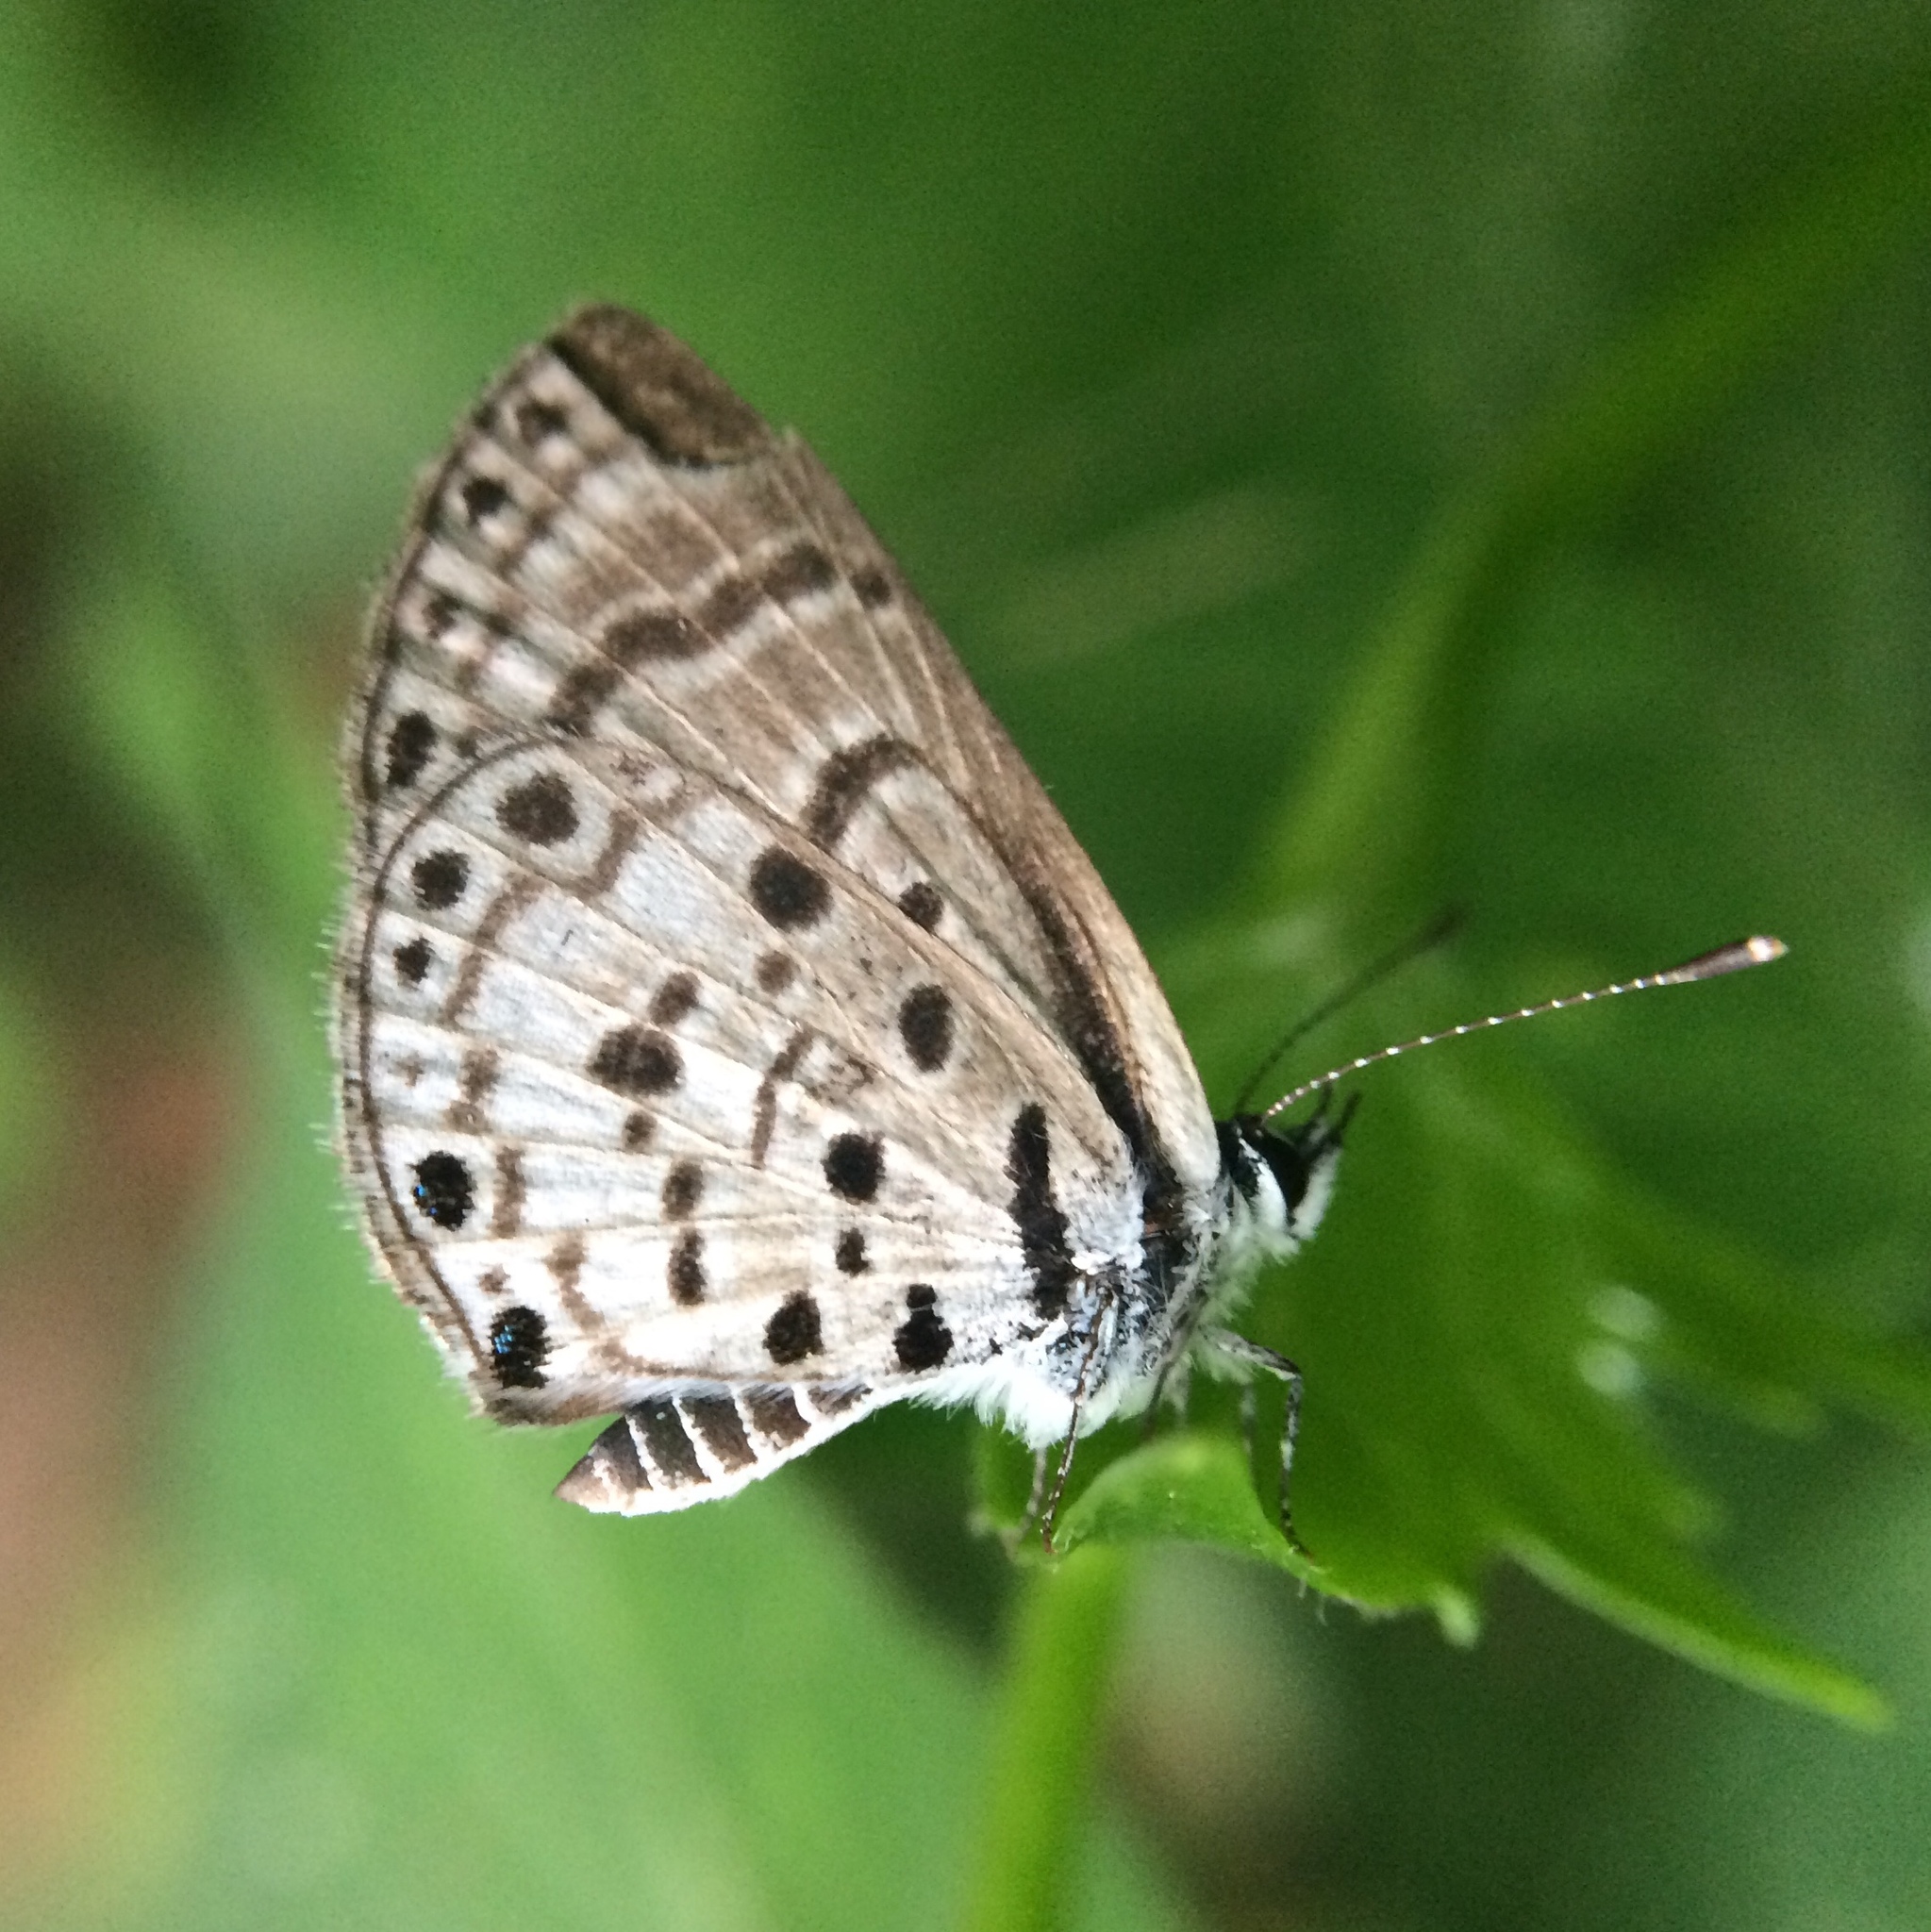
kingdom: Animalia
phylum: Arthropoda
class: Insecta
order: Lepidoptera
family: Lycaenidae
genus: Azanus
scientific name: Azanus moriqua
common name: Thorn-tree babul blue
